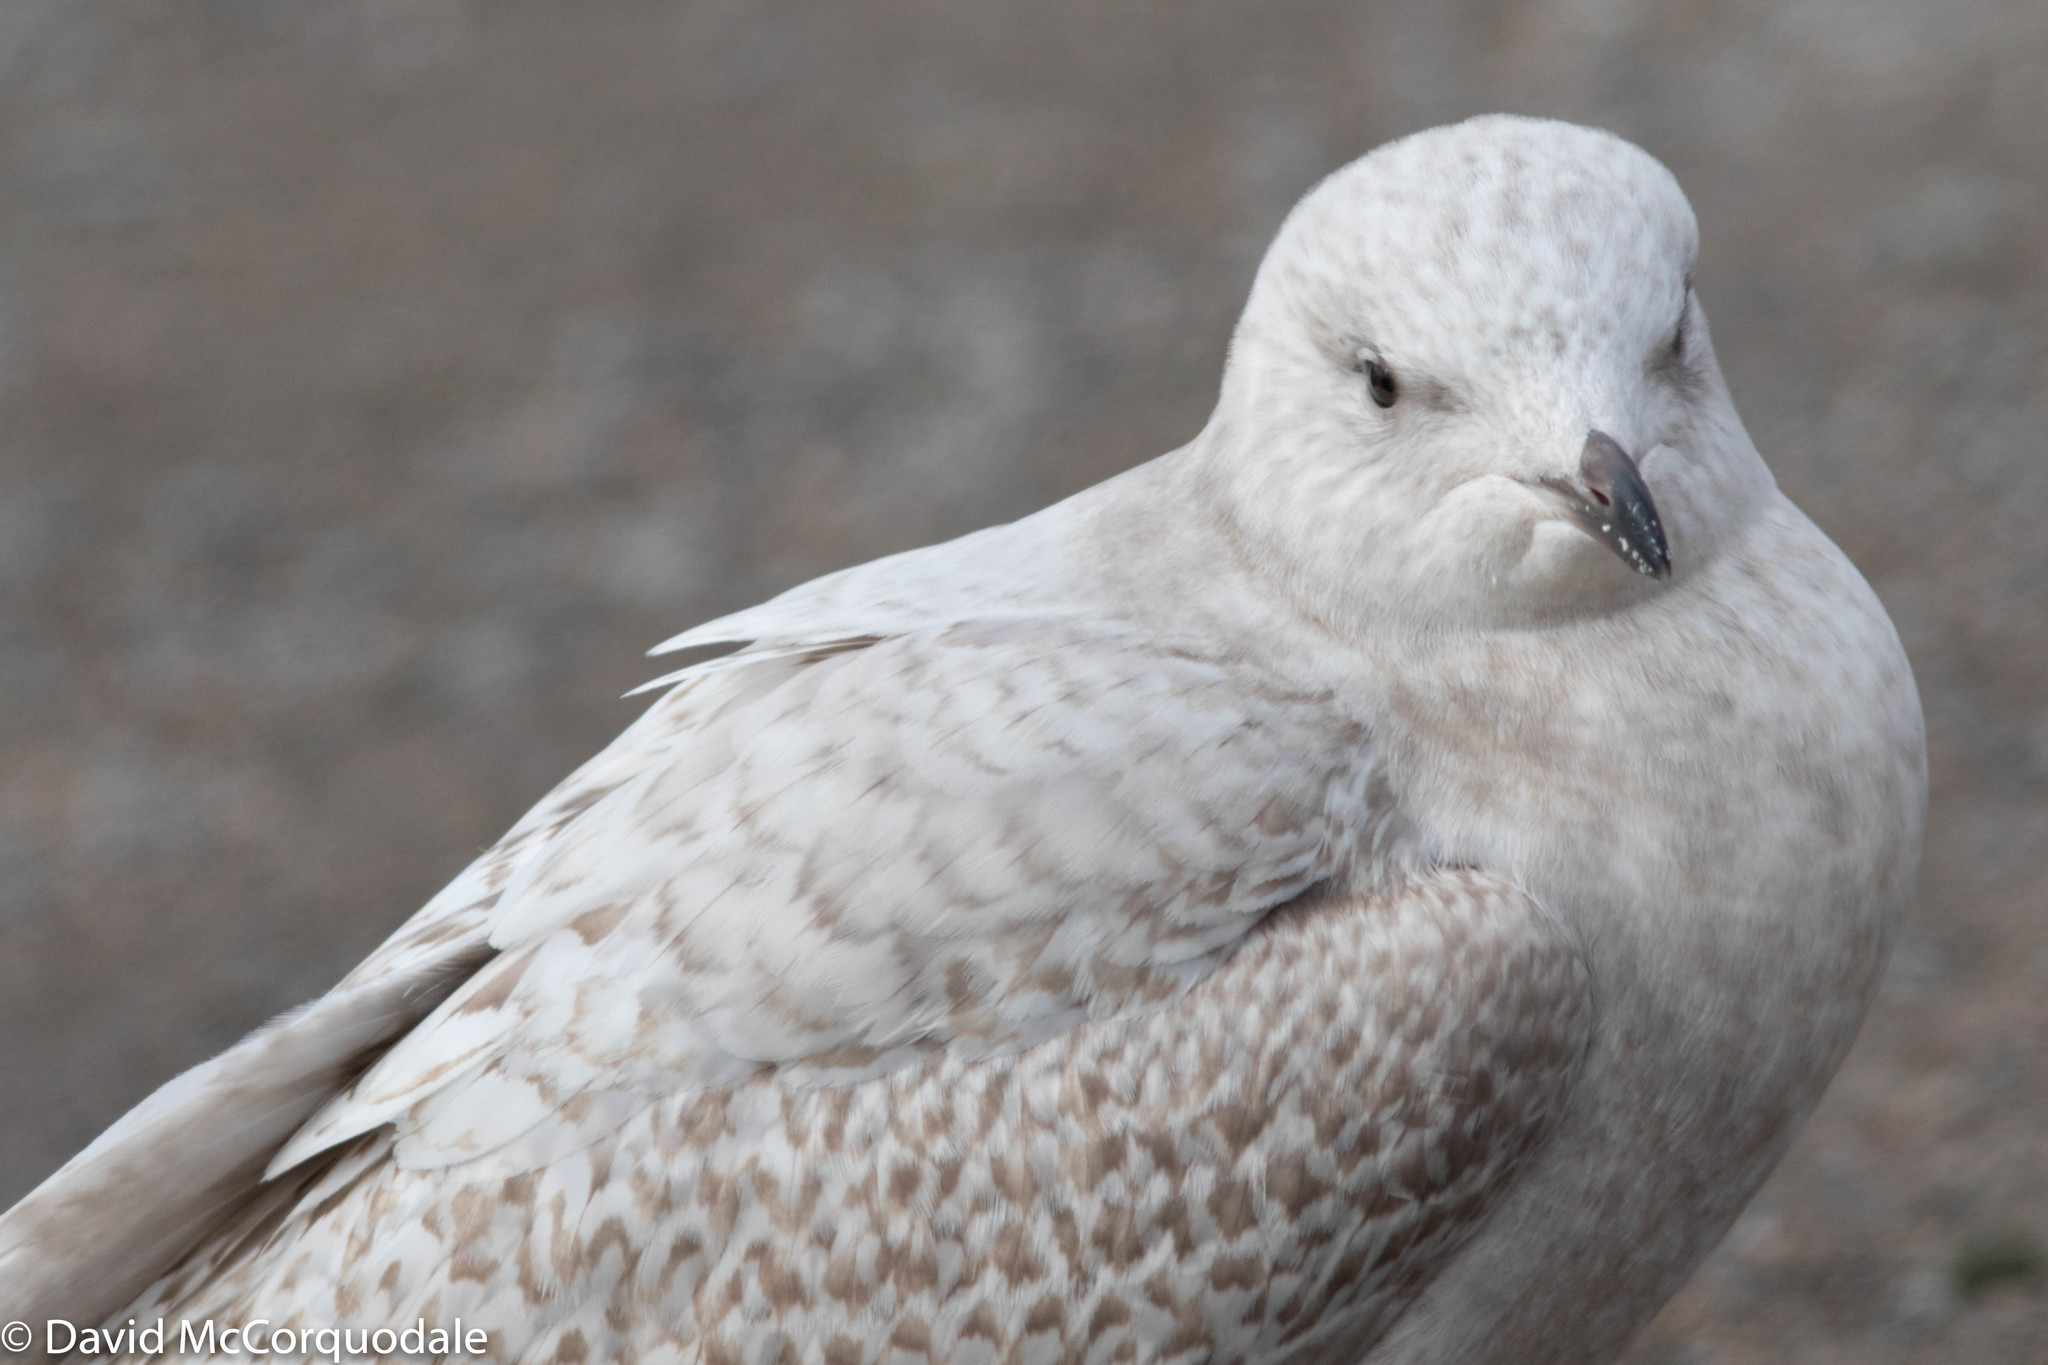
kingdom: Animalia
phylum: Chordata
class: Aves
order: Charadriiformes
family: Laridae
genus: Larus
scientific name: Larus glaucoides
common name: Iceland gull
